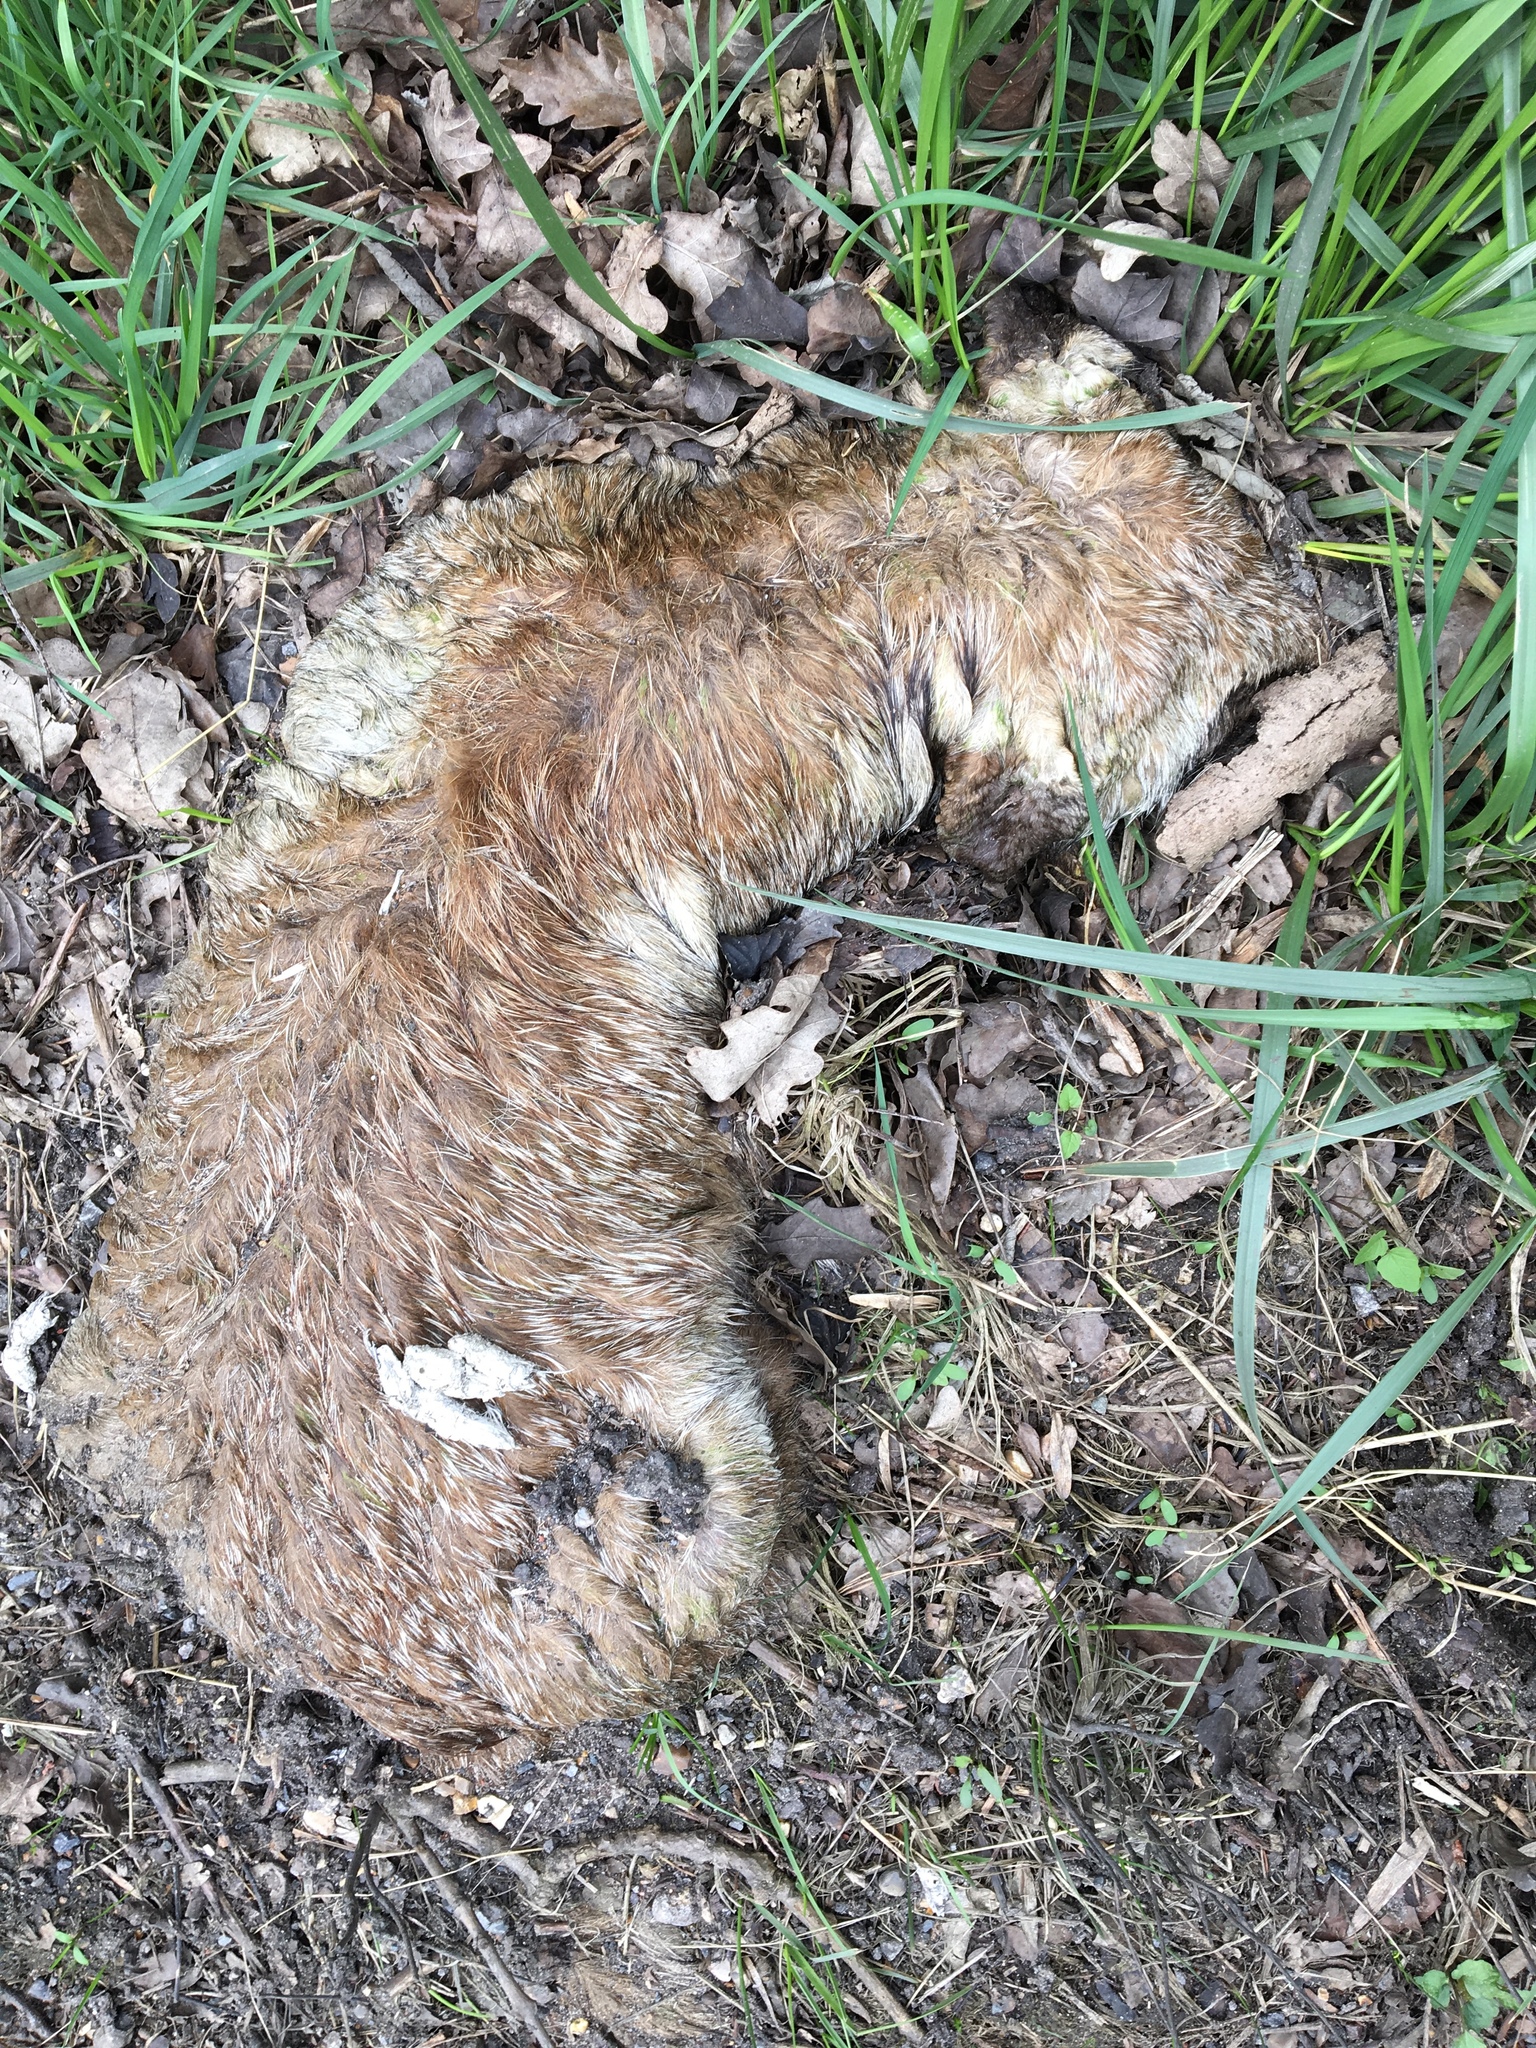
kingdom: Animalia
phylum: Chordata
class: Mammalia
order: Carnivora
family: Canidae
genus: Vulpes
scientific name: Vulpes vulpes
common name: Red fox
